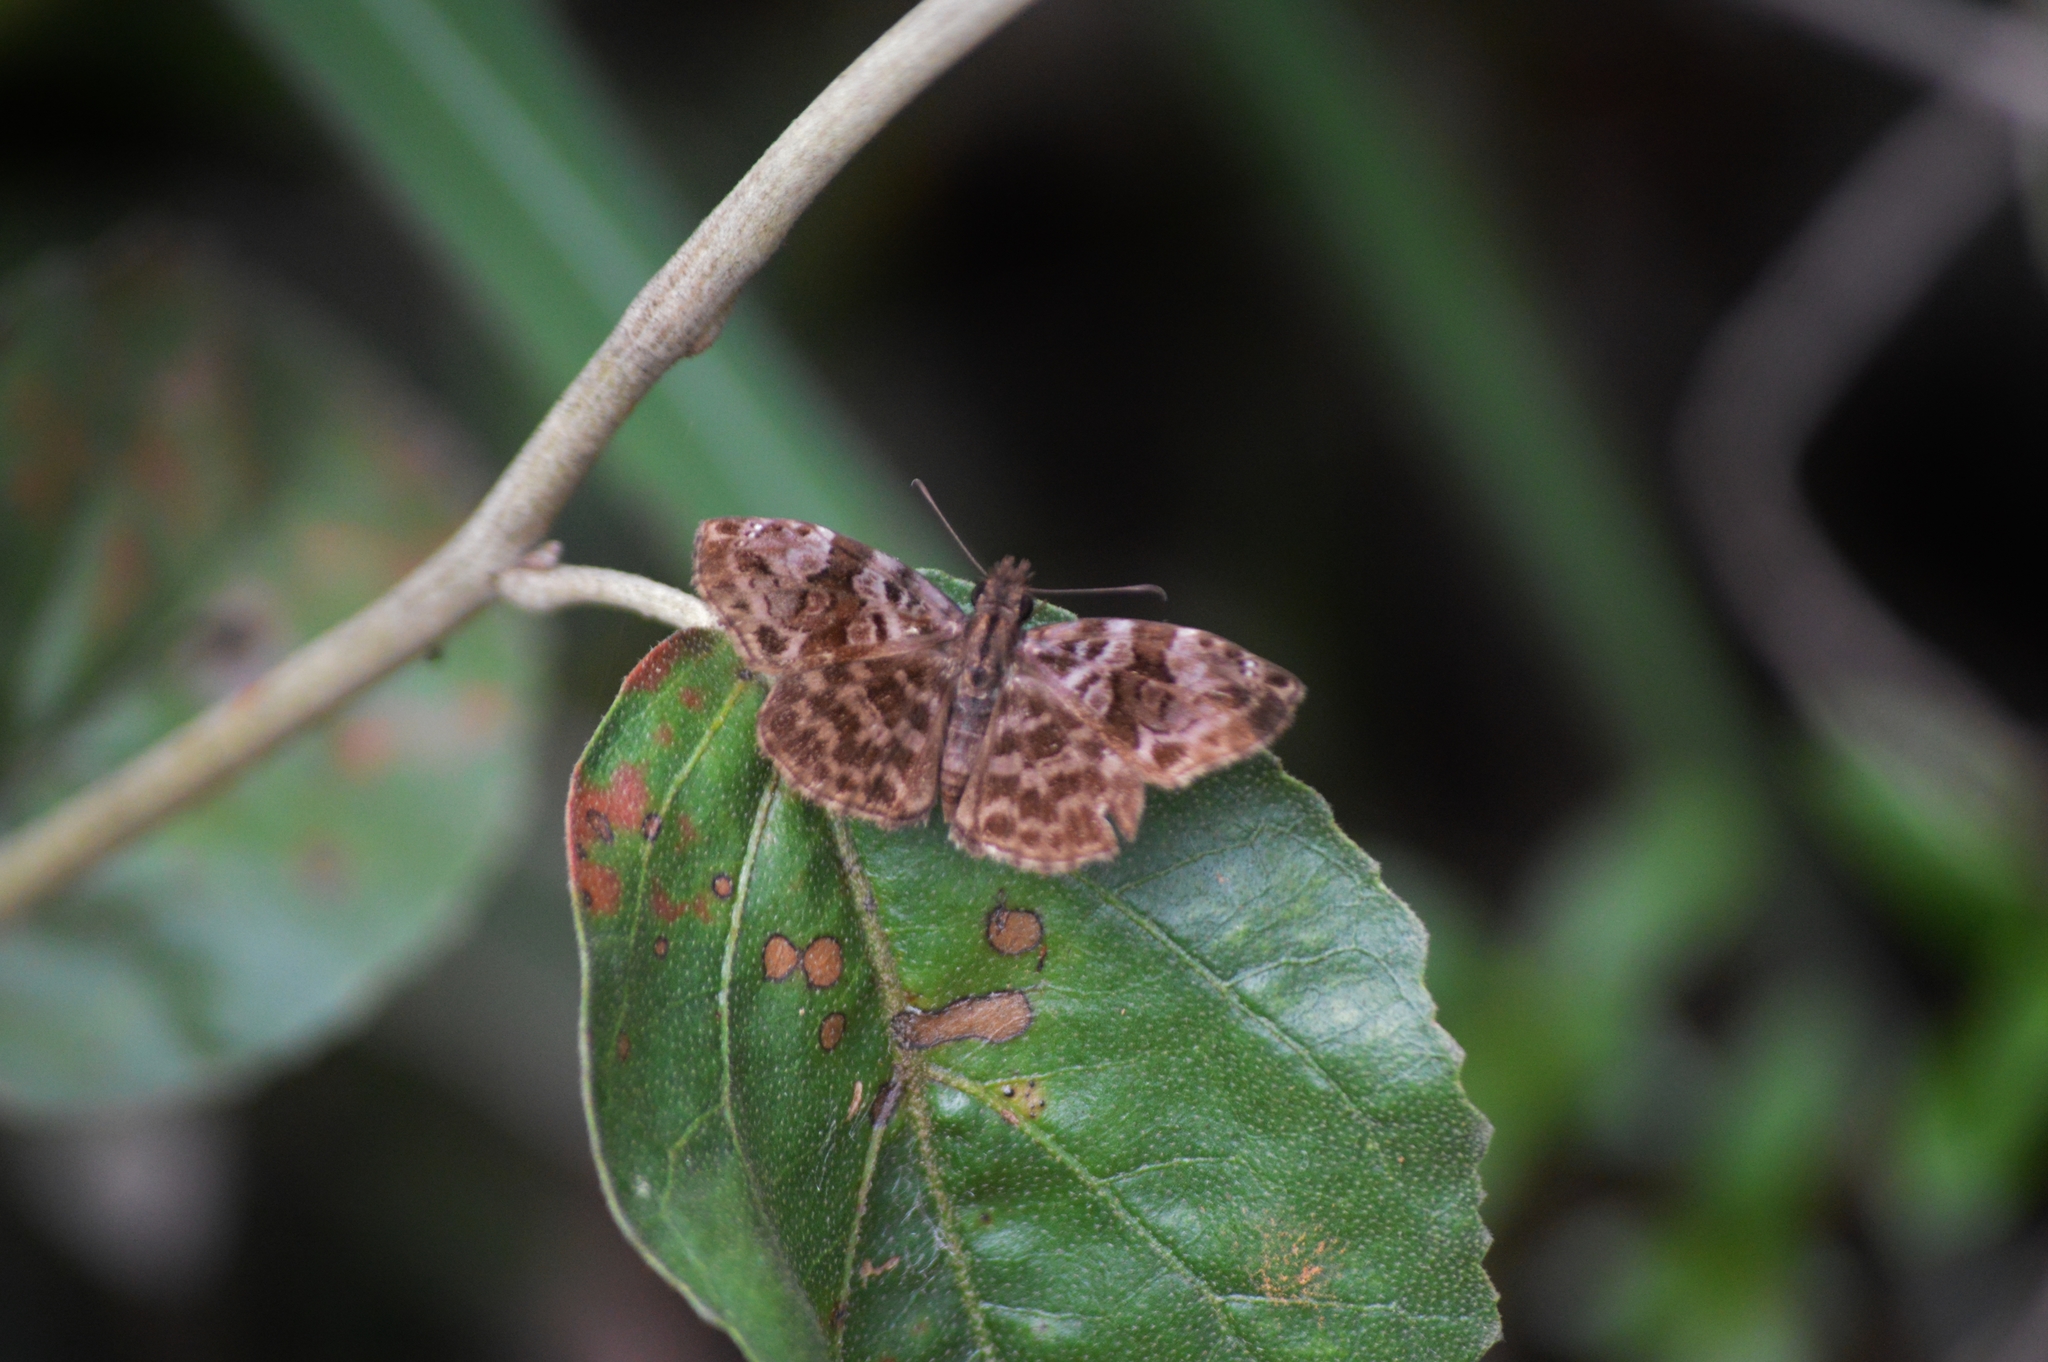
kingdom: Animalia
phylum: Arthropoda
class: Insecta
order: Lepidoptera
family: Hesperiidae
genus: Gorgythion
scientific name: Gorgythion begga
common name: Variegated skipper
